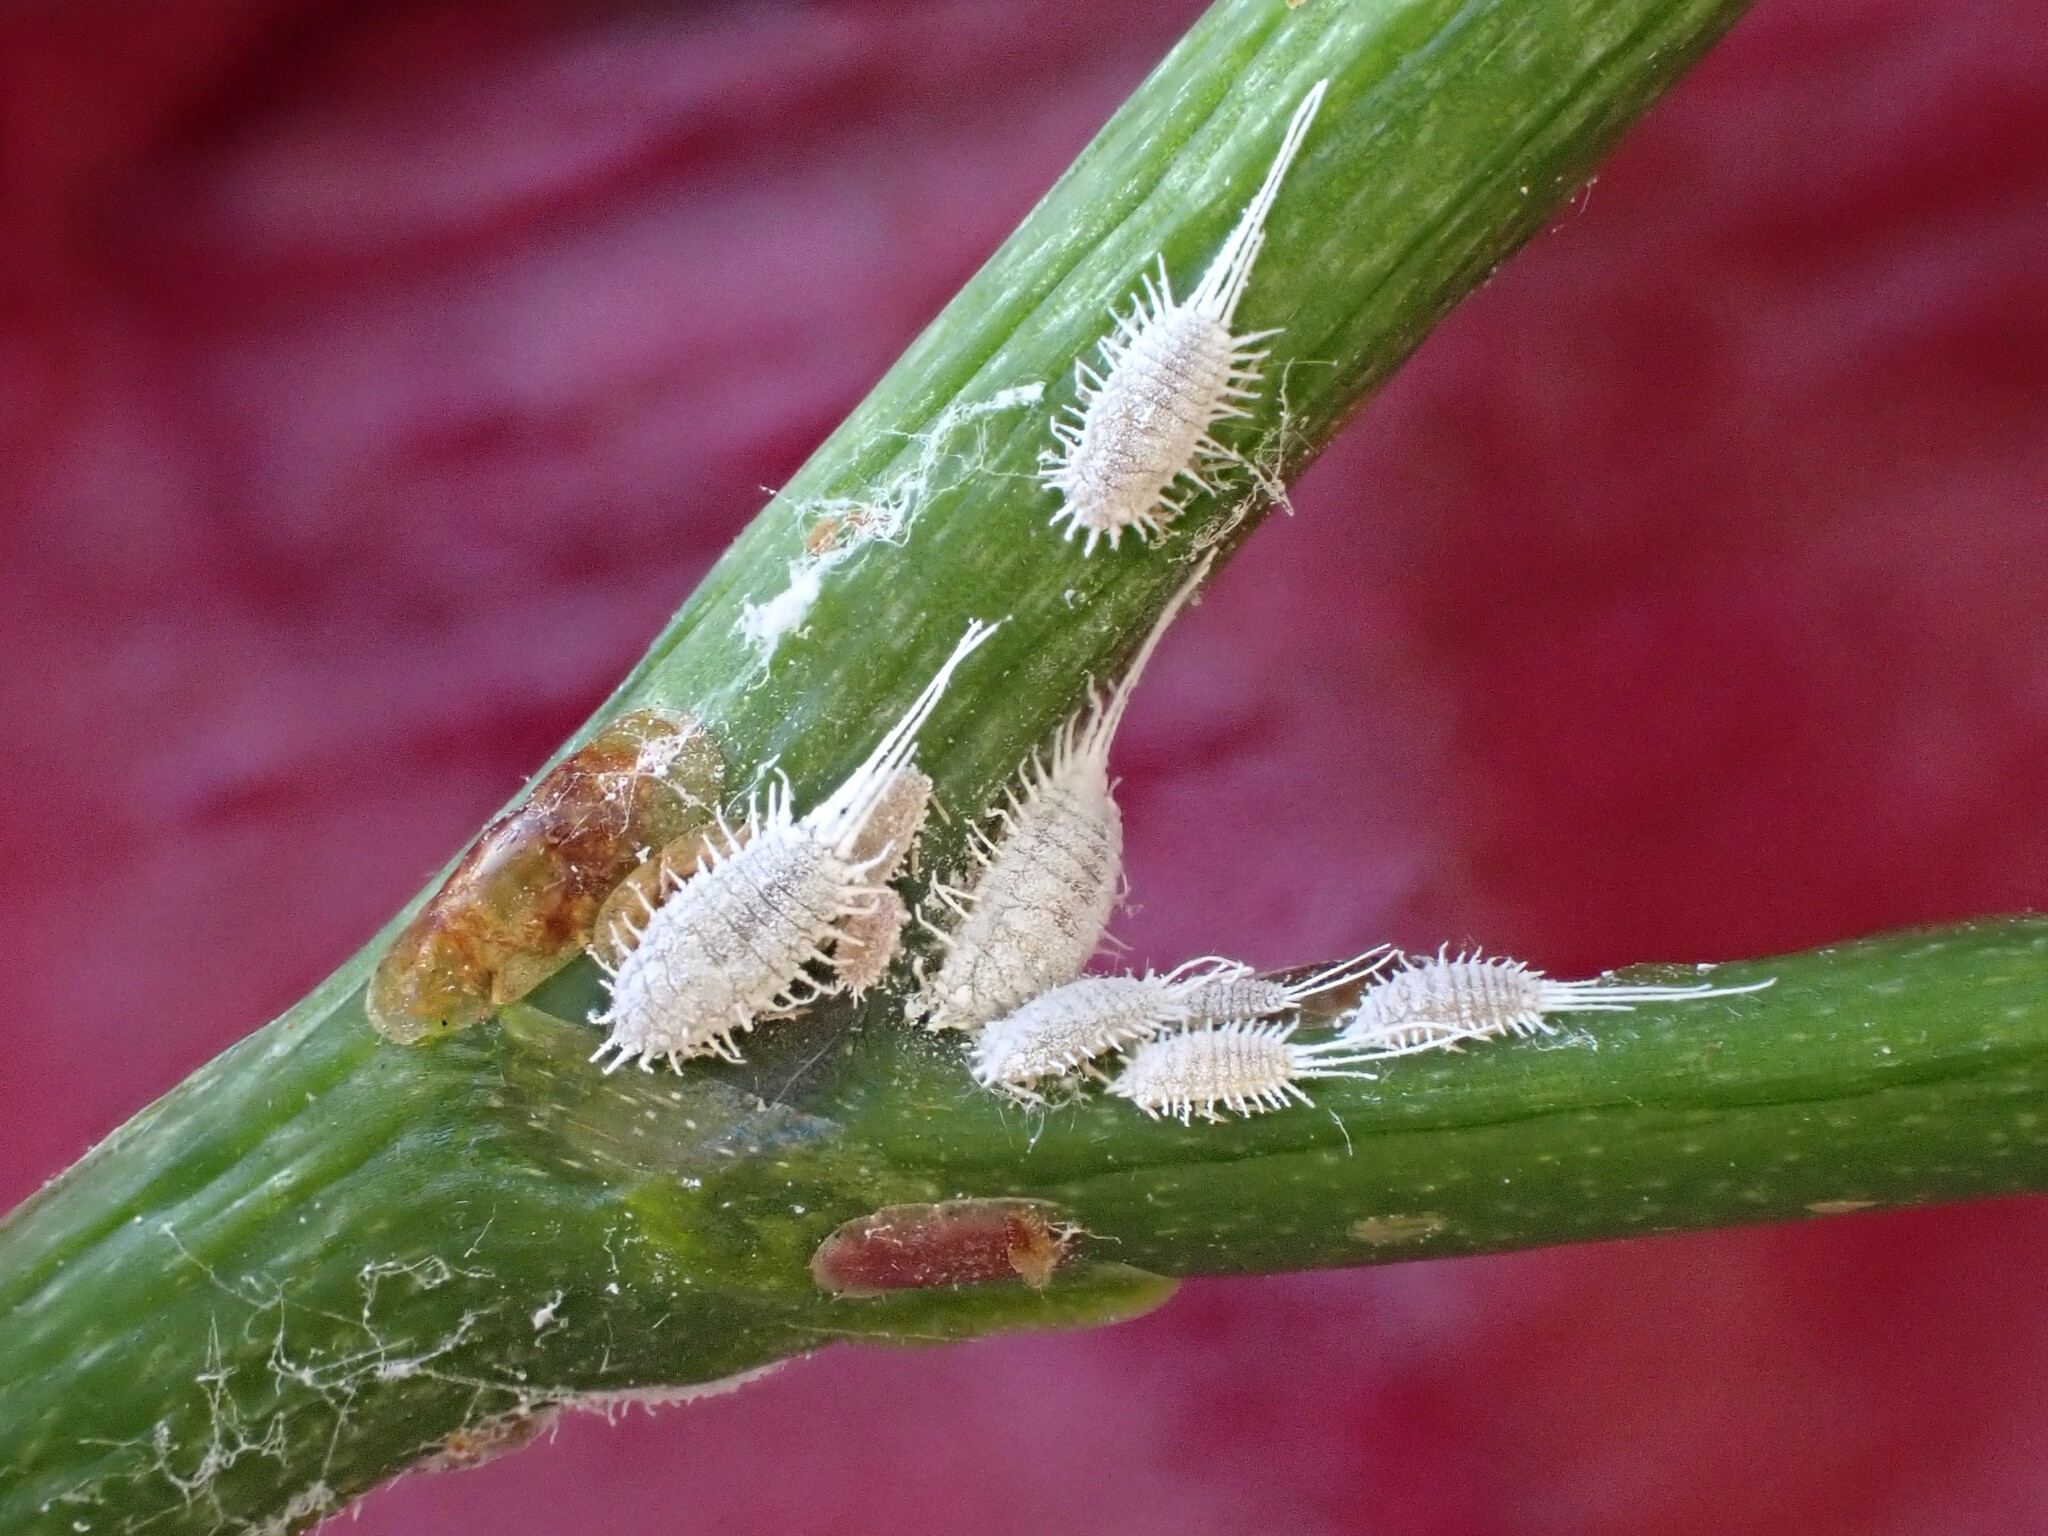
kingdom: Animalia
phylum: Arthropoda
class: Insecta
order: Hemiptera
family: Pseudococcidae
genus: Pseudococcus
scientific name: Pseudococcus longispinus
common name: Long-tailed mealybug
